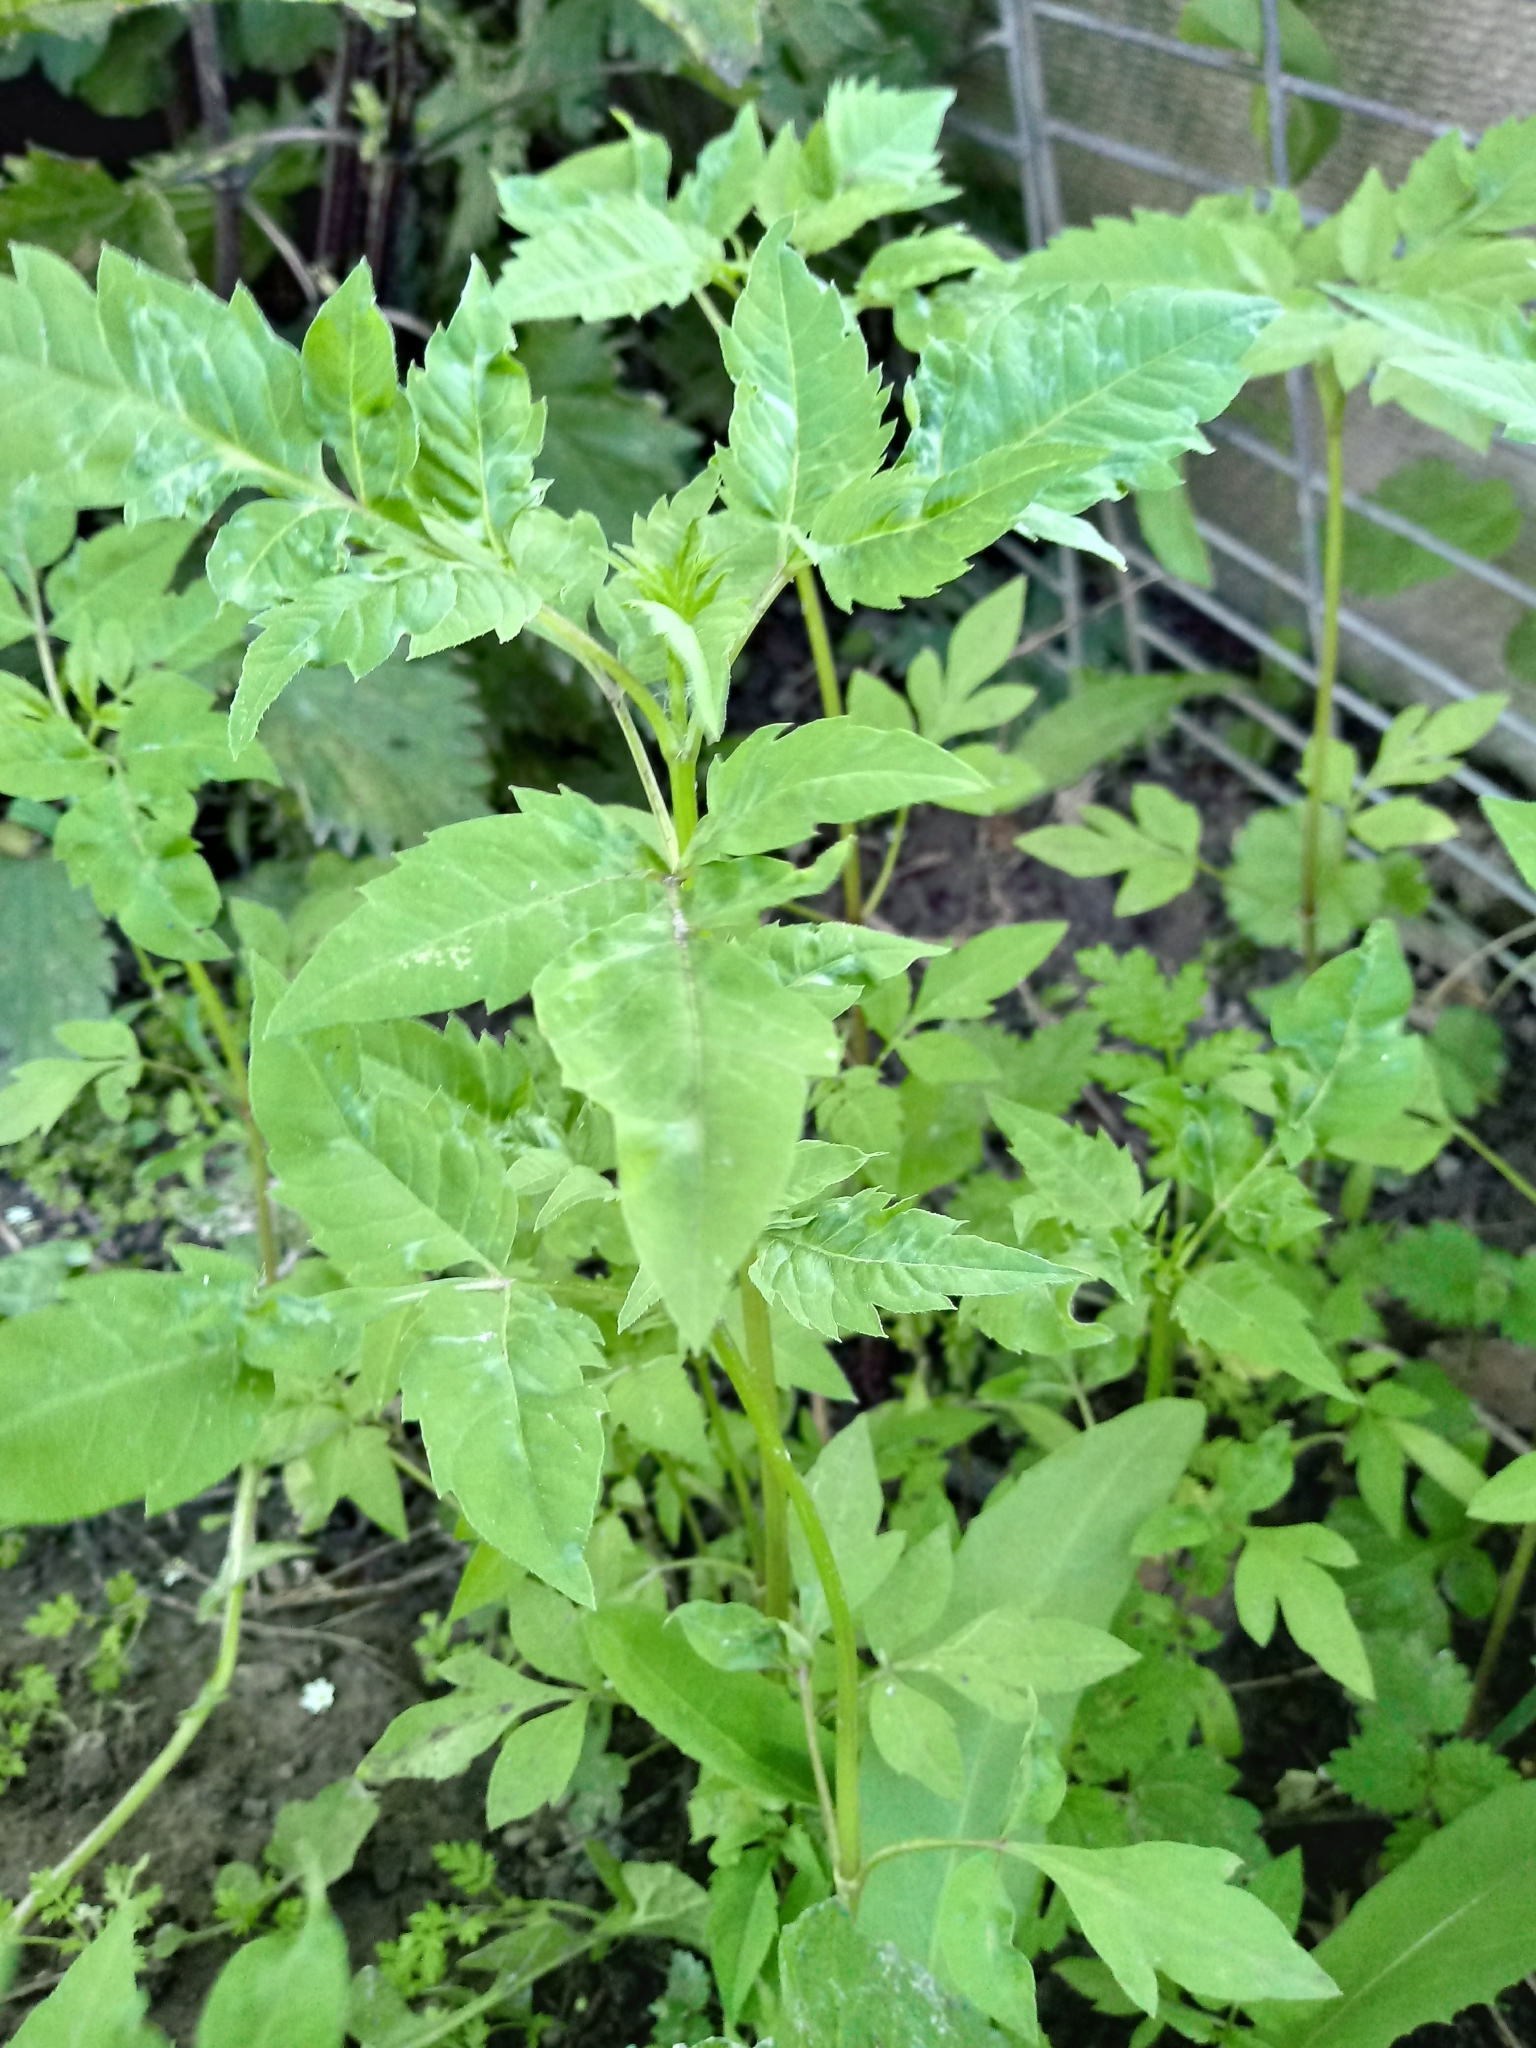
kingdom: Plantae
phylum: Tracheophyta
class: Magnoliopsida
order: Asterales
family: Asteraceae
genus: Bidens
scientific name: Bidens frondosa
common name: Beggarticks
